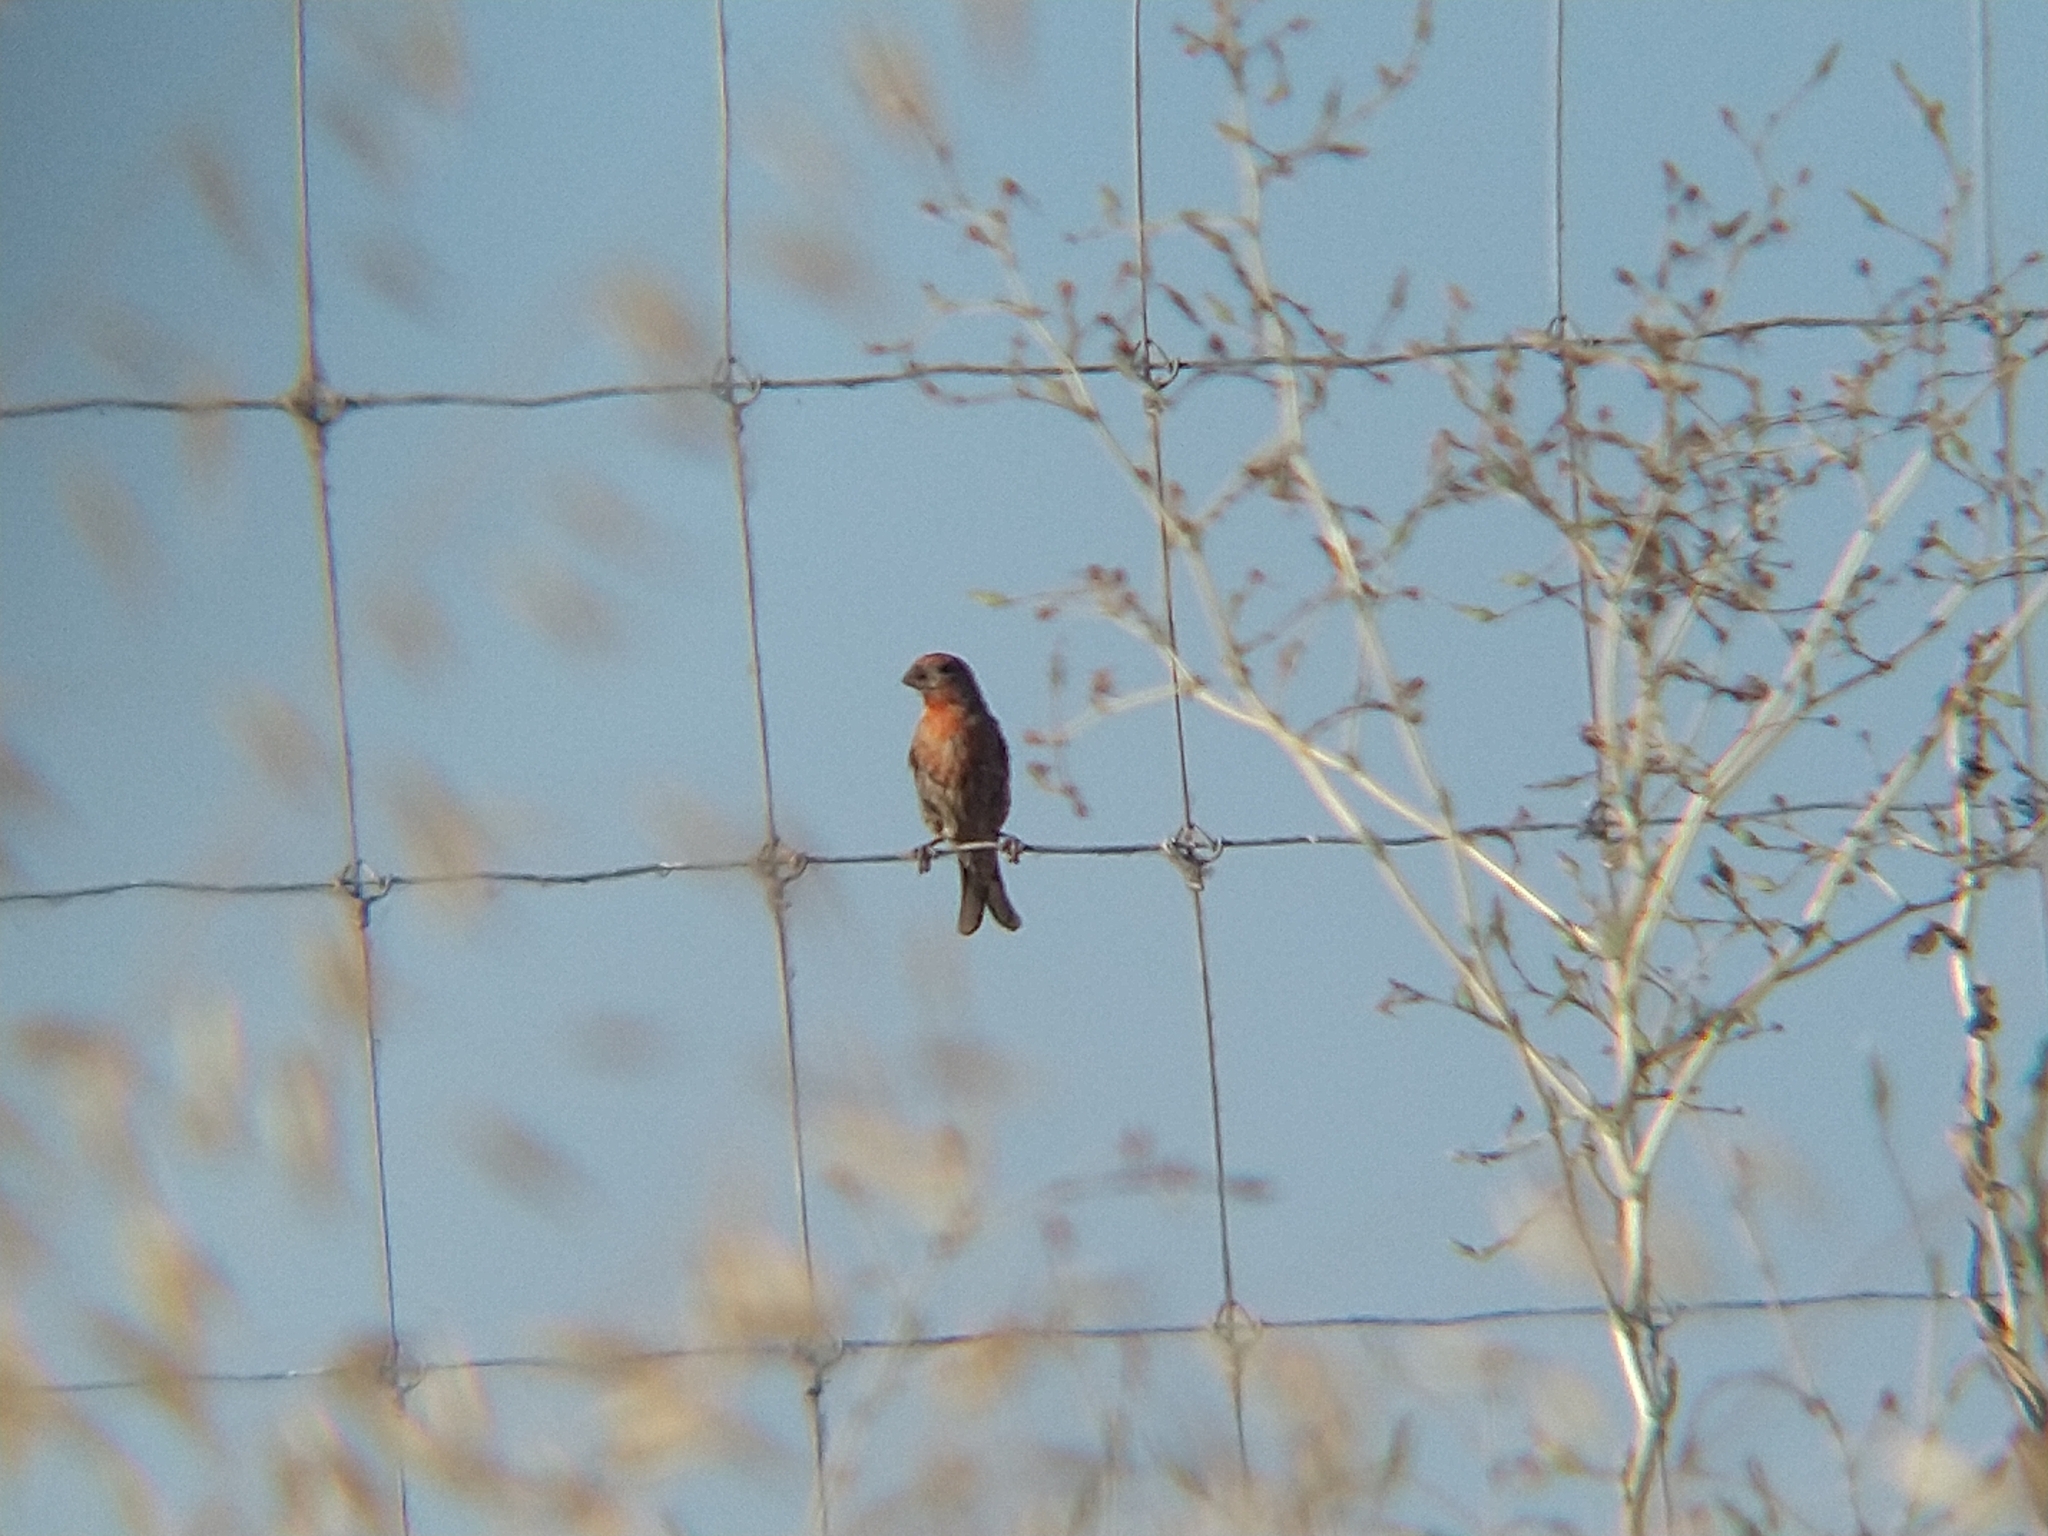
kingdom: Animalia
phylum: Chordata
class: Aves
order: Passeriformes
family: Fringillidae
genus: Haemorhous
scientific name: Haemorhous mexicanus
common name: House finch
